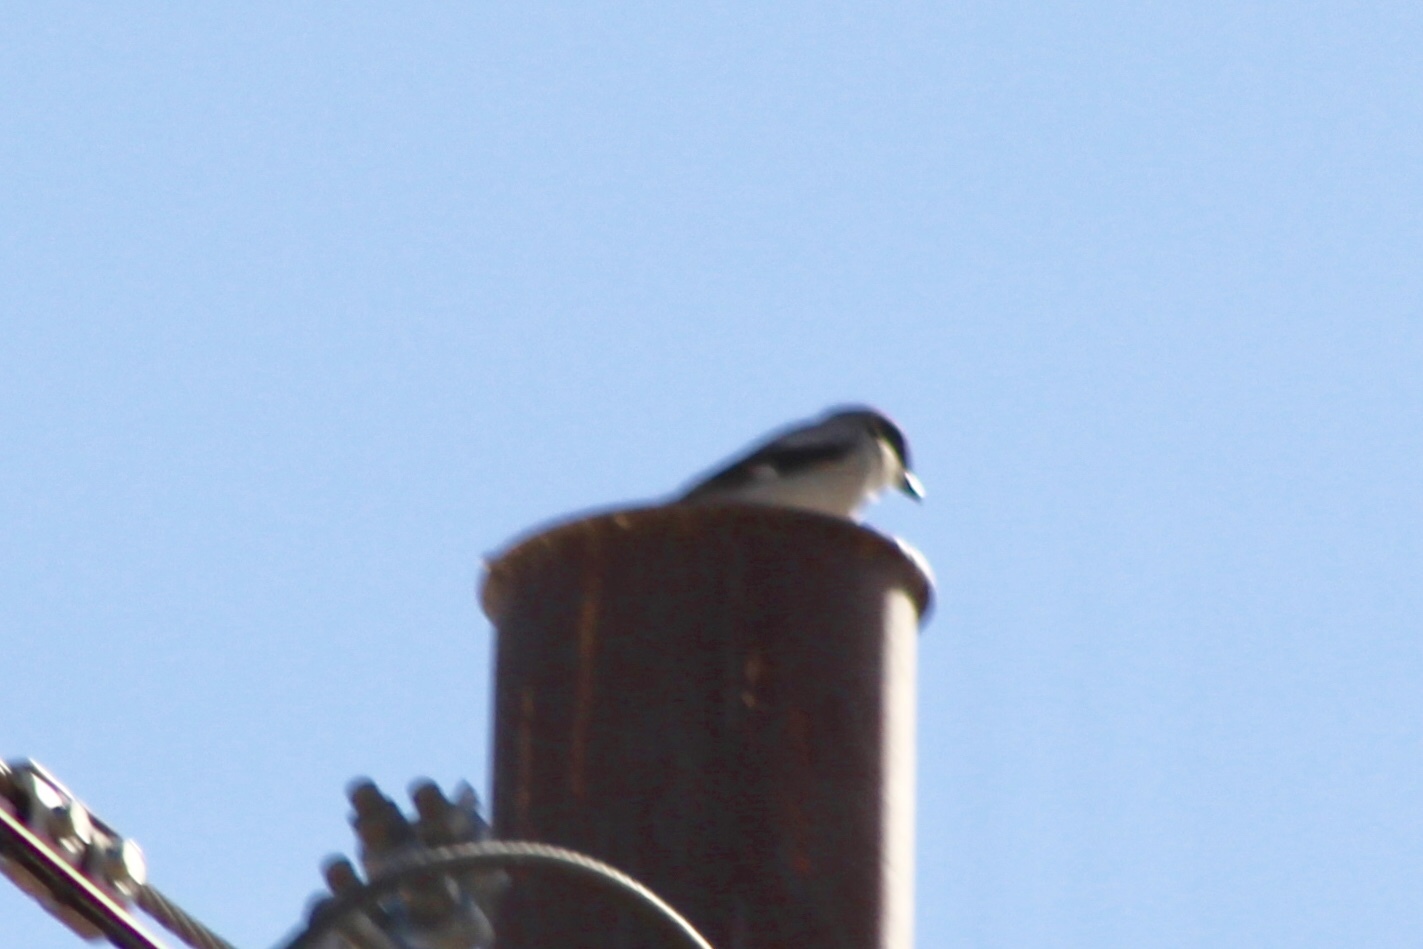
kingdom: Animalia
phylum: Chordata
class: Aves
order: Passeriformes
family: Laniidae
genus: Lanius
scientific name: Lanius ludovicianus
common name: Loggerhead shrike
